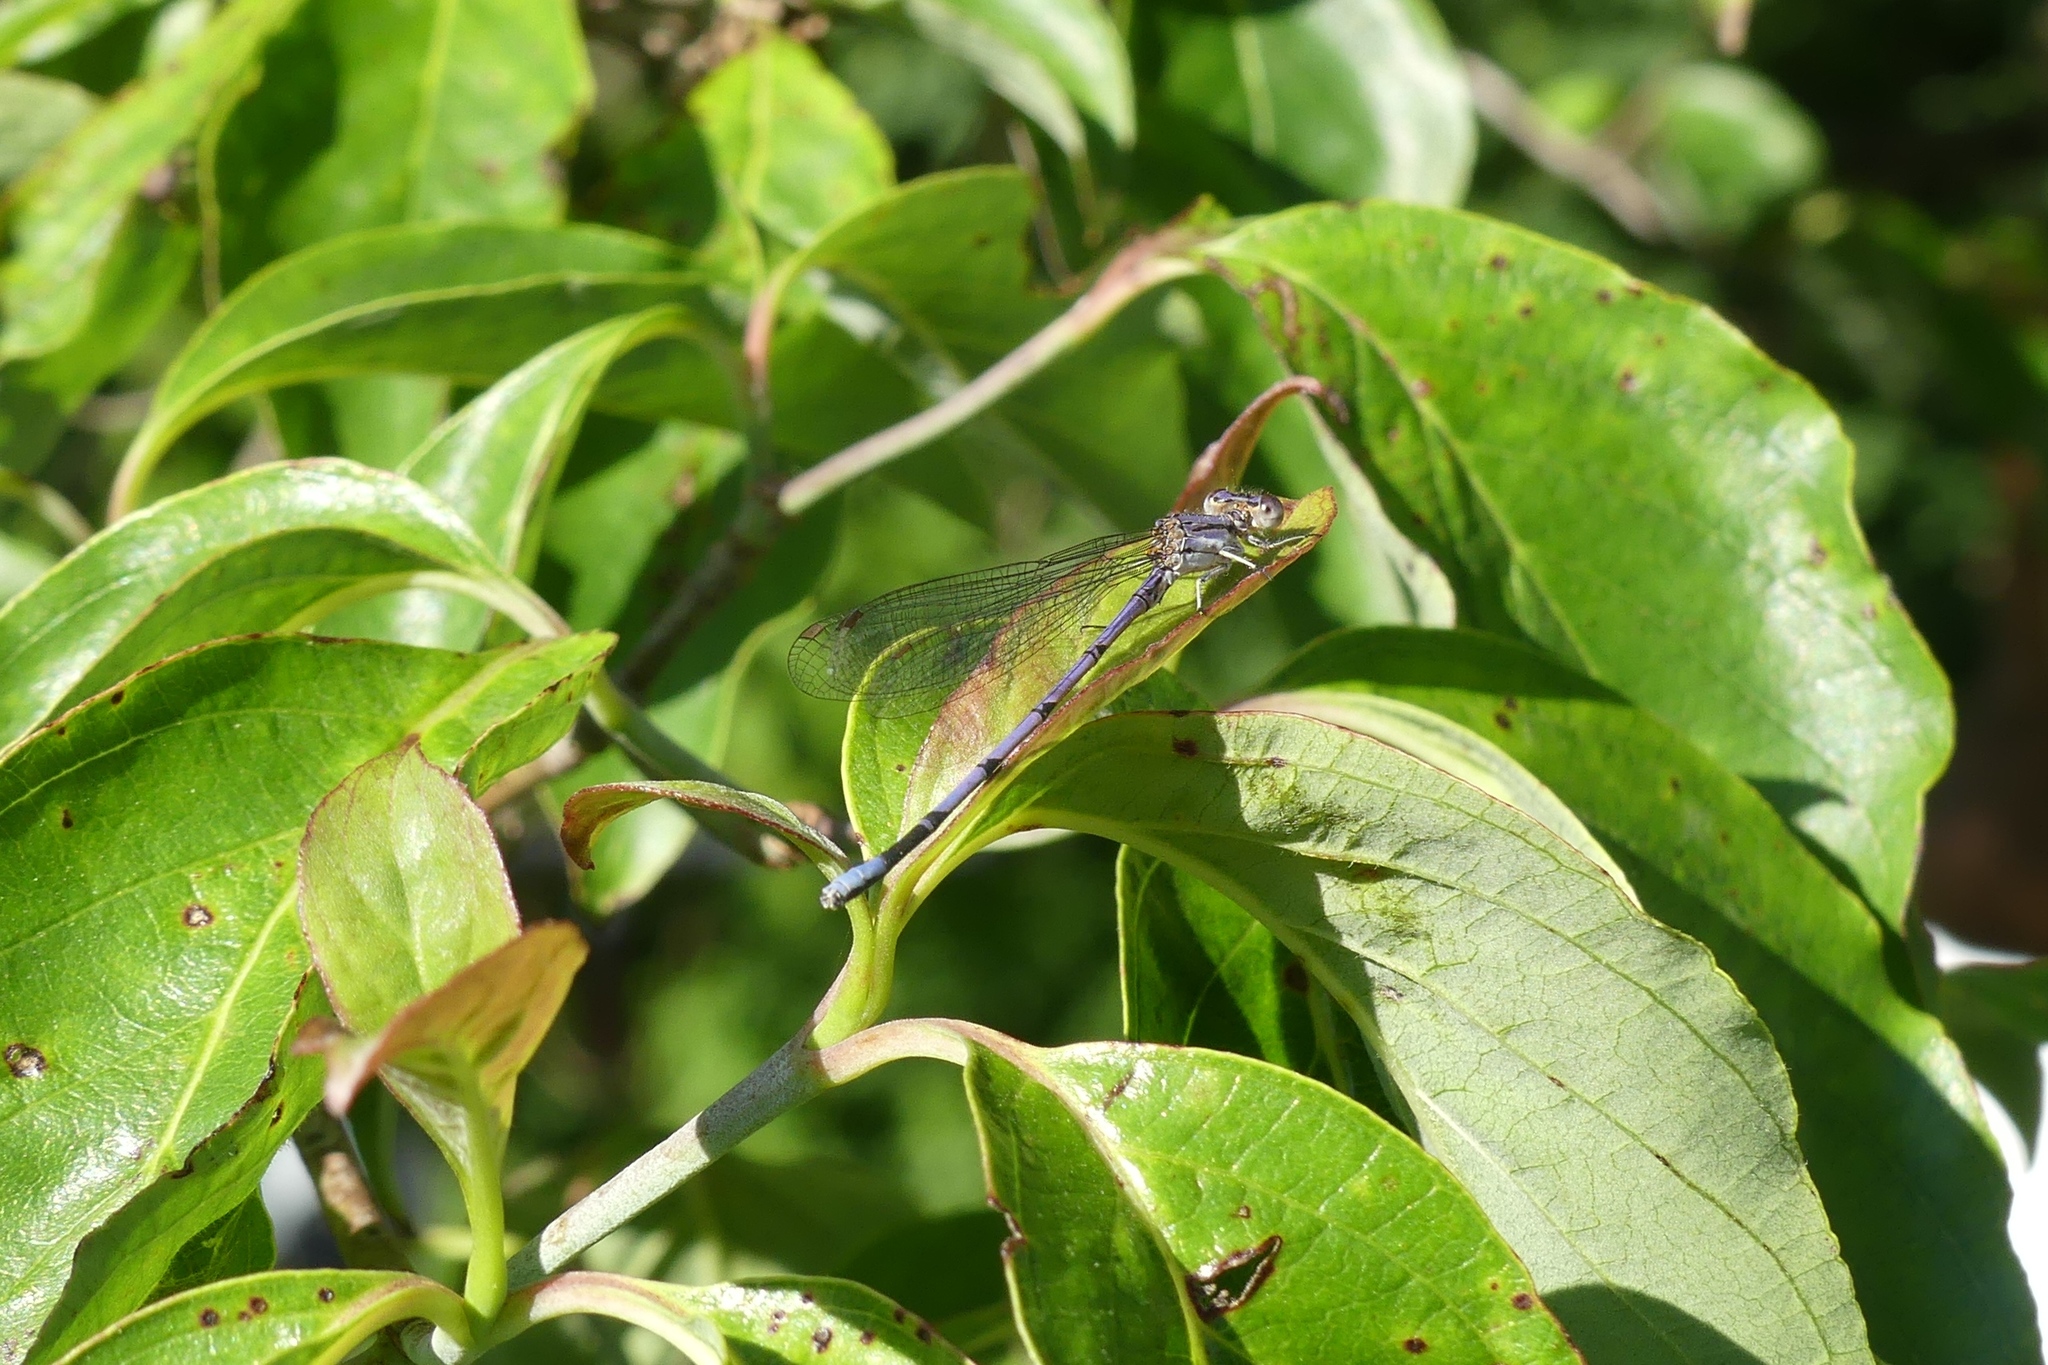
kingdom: Animalia
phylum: Arthropoda
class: Insecta
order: Odonata
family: Coenagrionidae
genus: Argia
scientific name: Argia fumipennis
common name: Variable dancer
